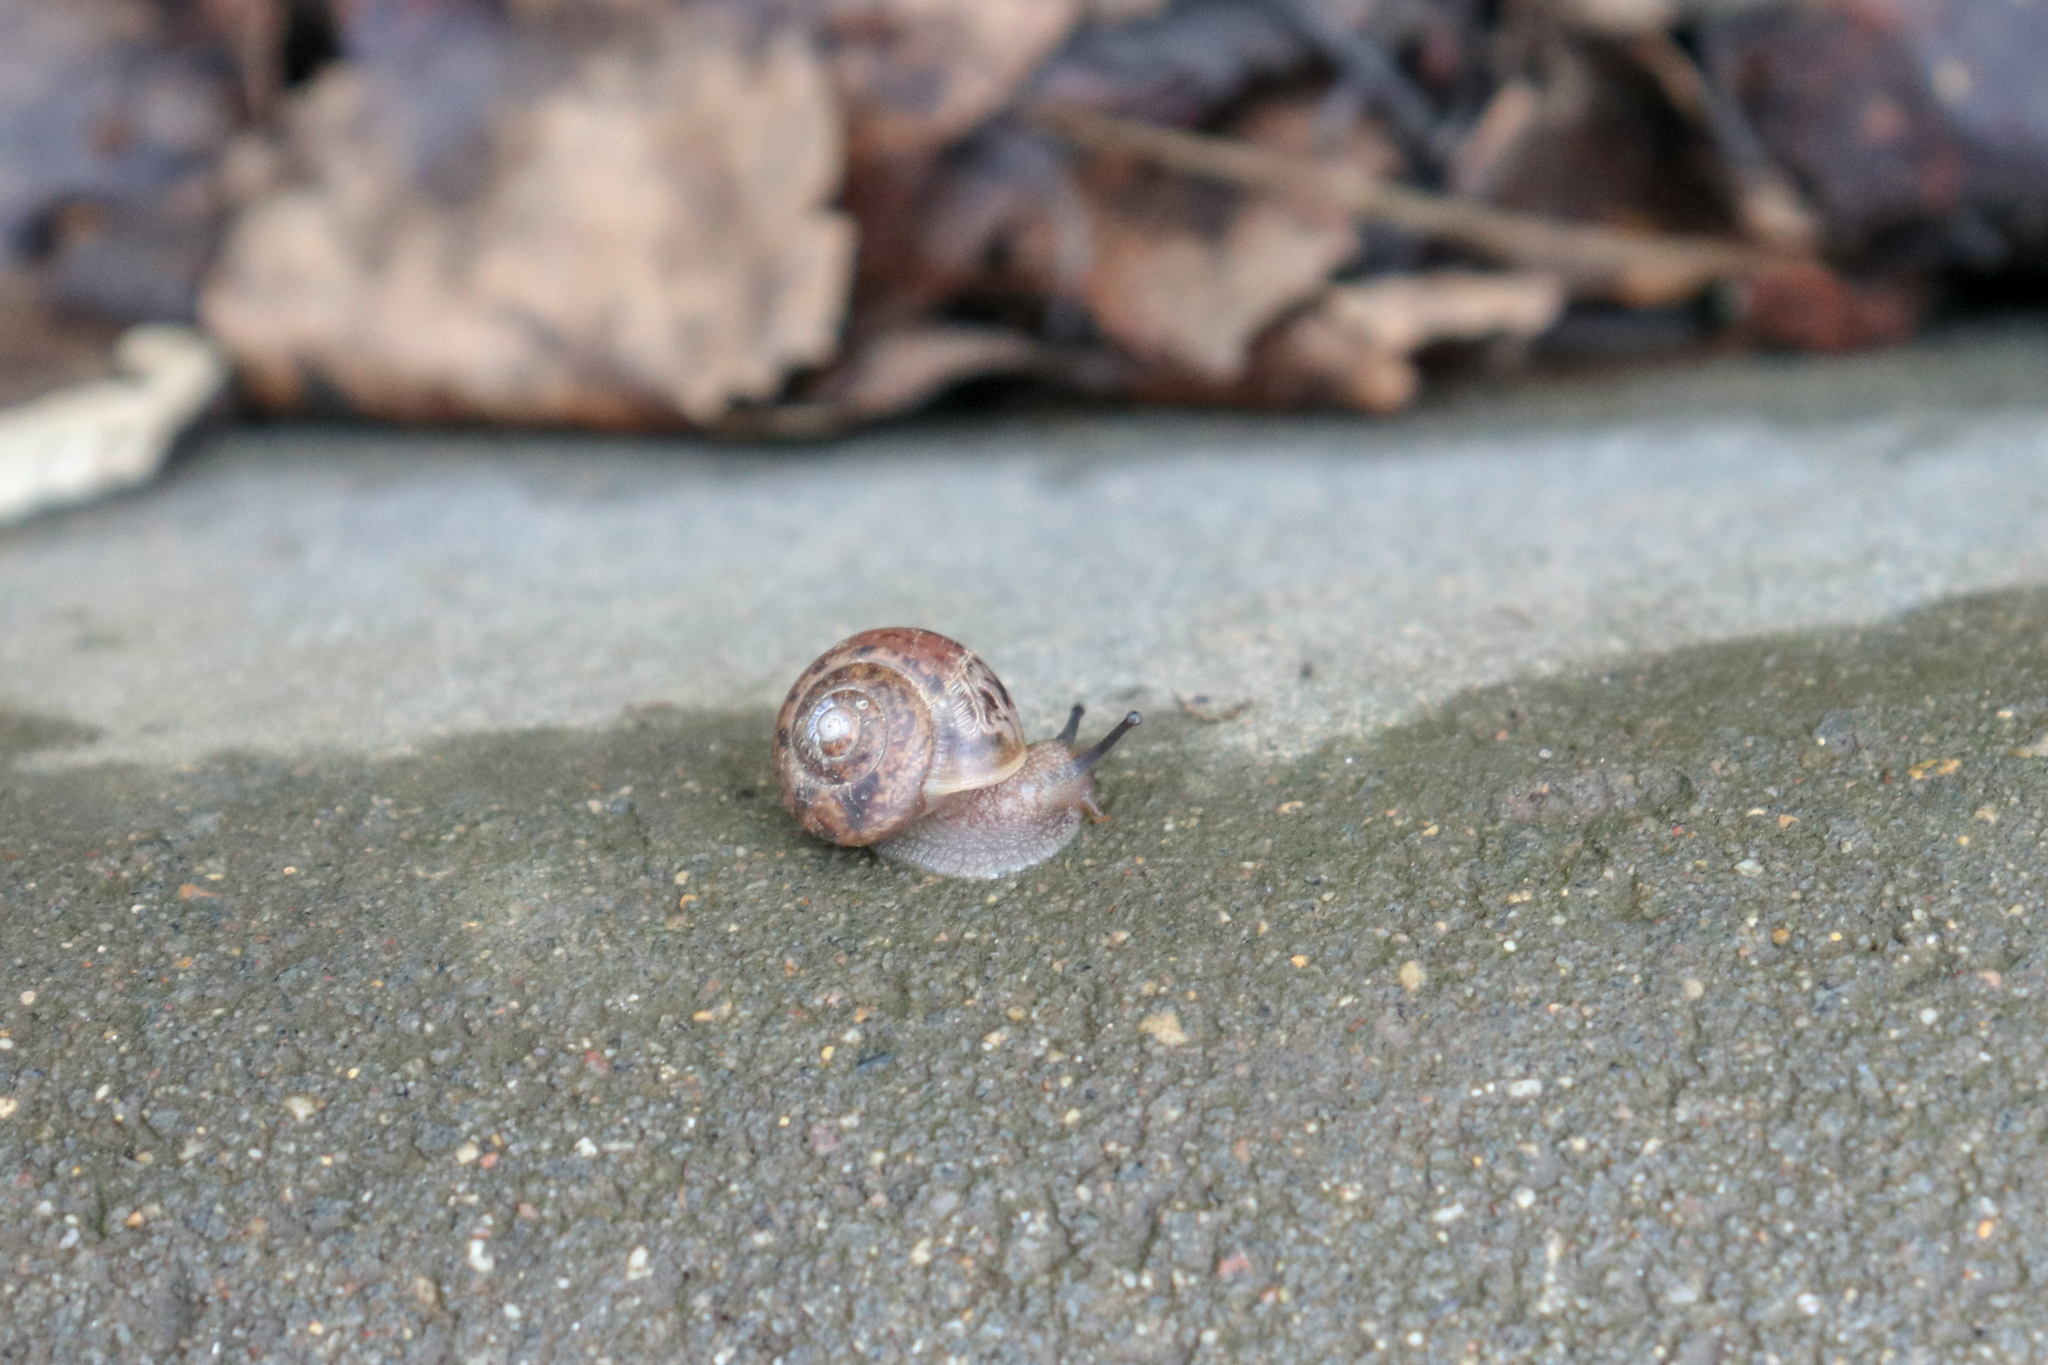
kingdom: Animalia
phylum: Mollusca
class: Gastropoda
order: Stylommatophora
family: Camaenidae
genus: Fruticicola
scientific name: Fruticicola fruticum
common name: Bush snail
